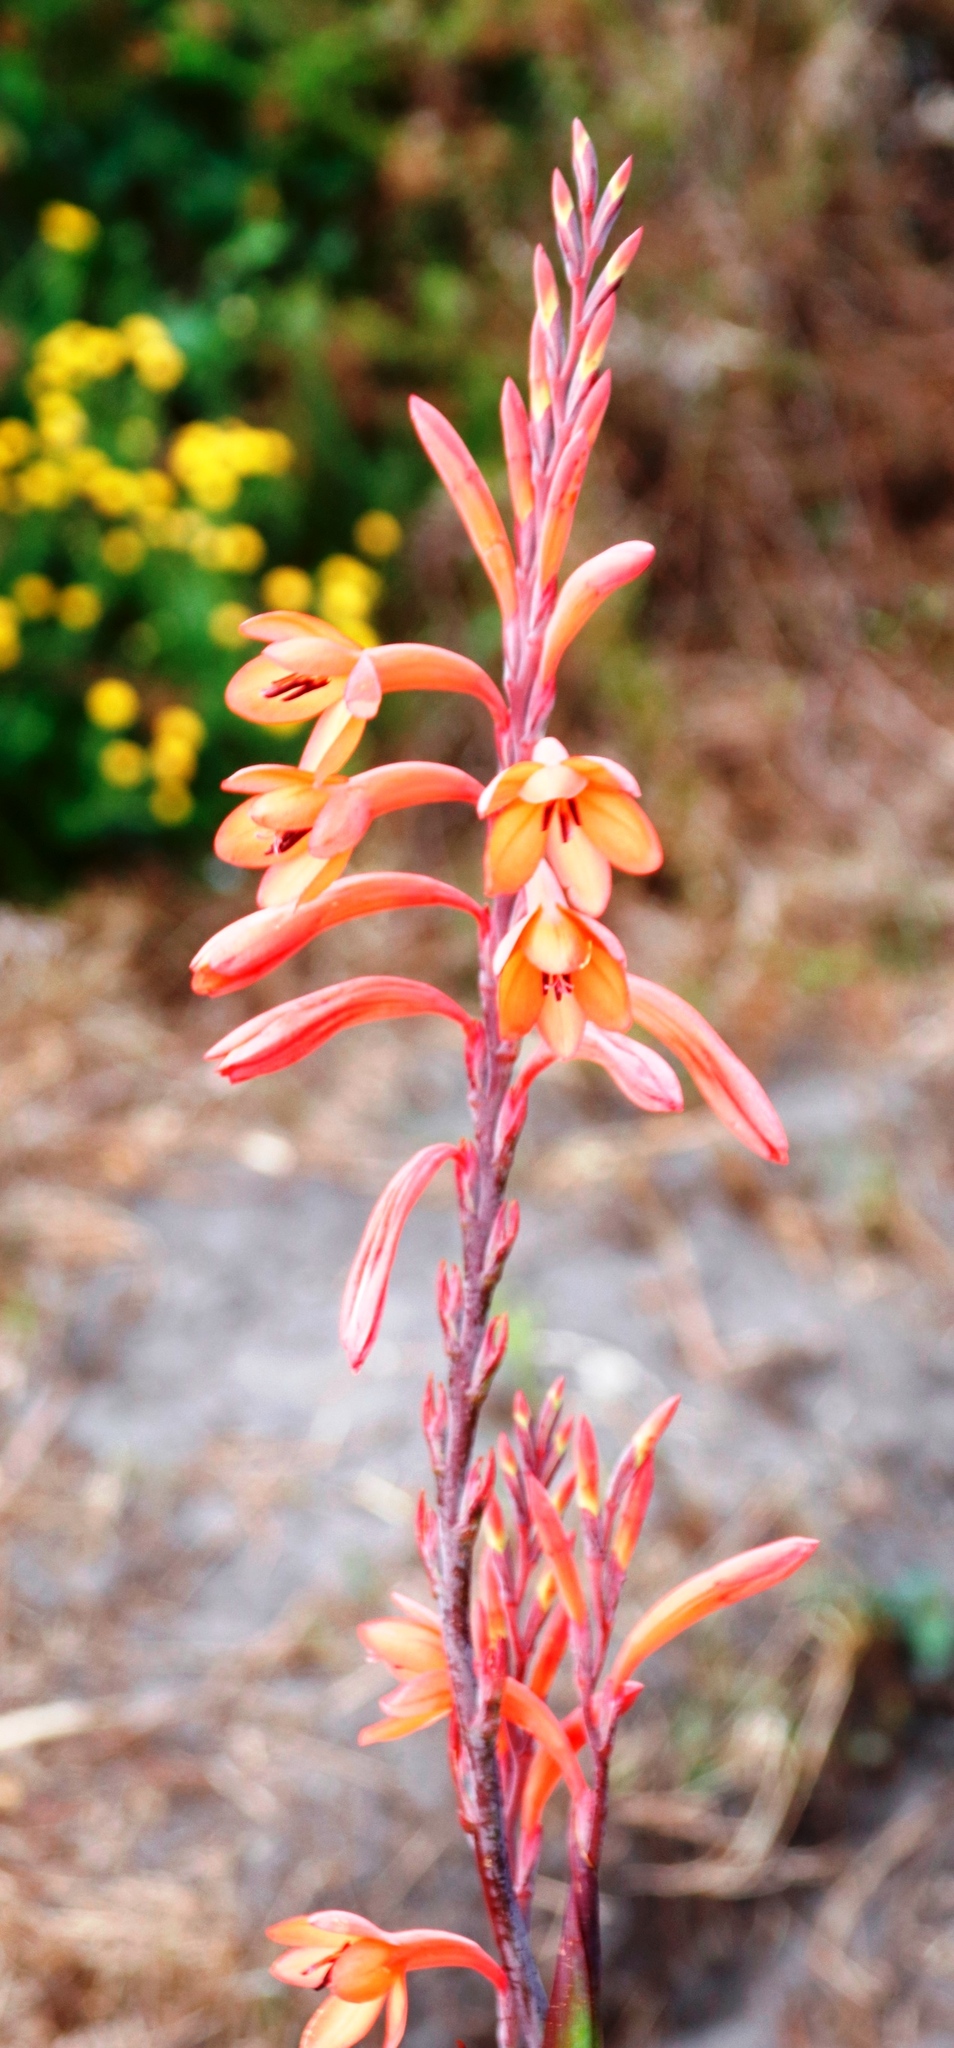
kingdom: Plantae
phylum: Tracheophyta
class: Liliopsida
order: Asparagales
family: Iridaceae
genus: Watsonia
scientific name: Watsonia tabularis
